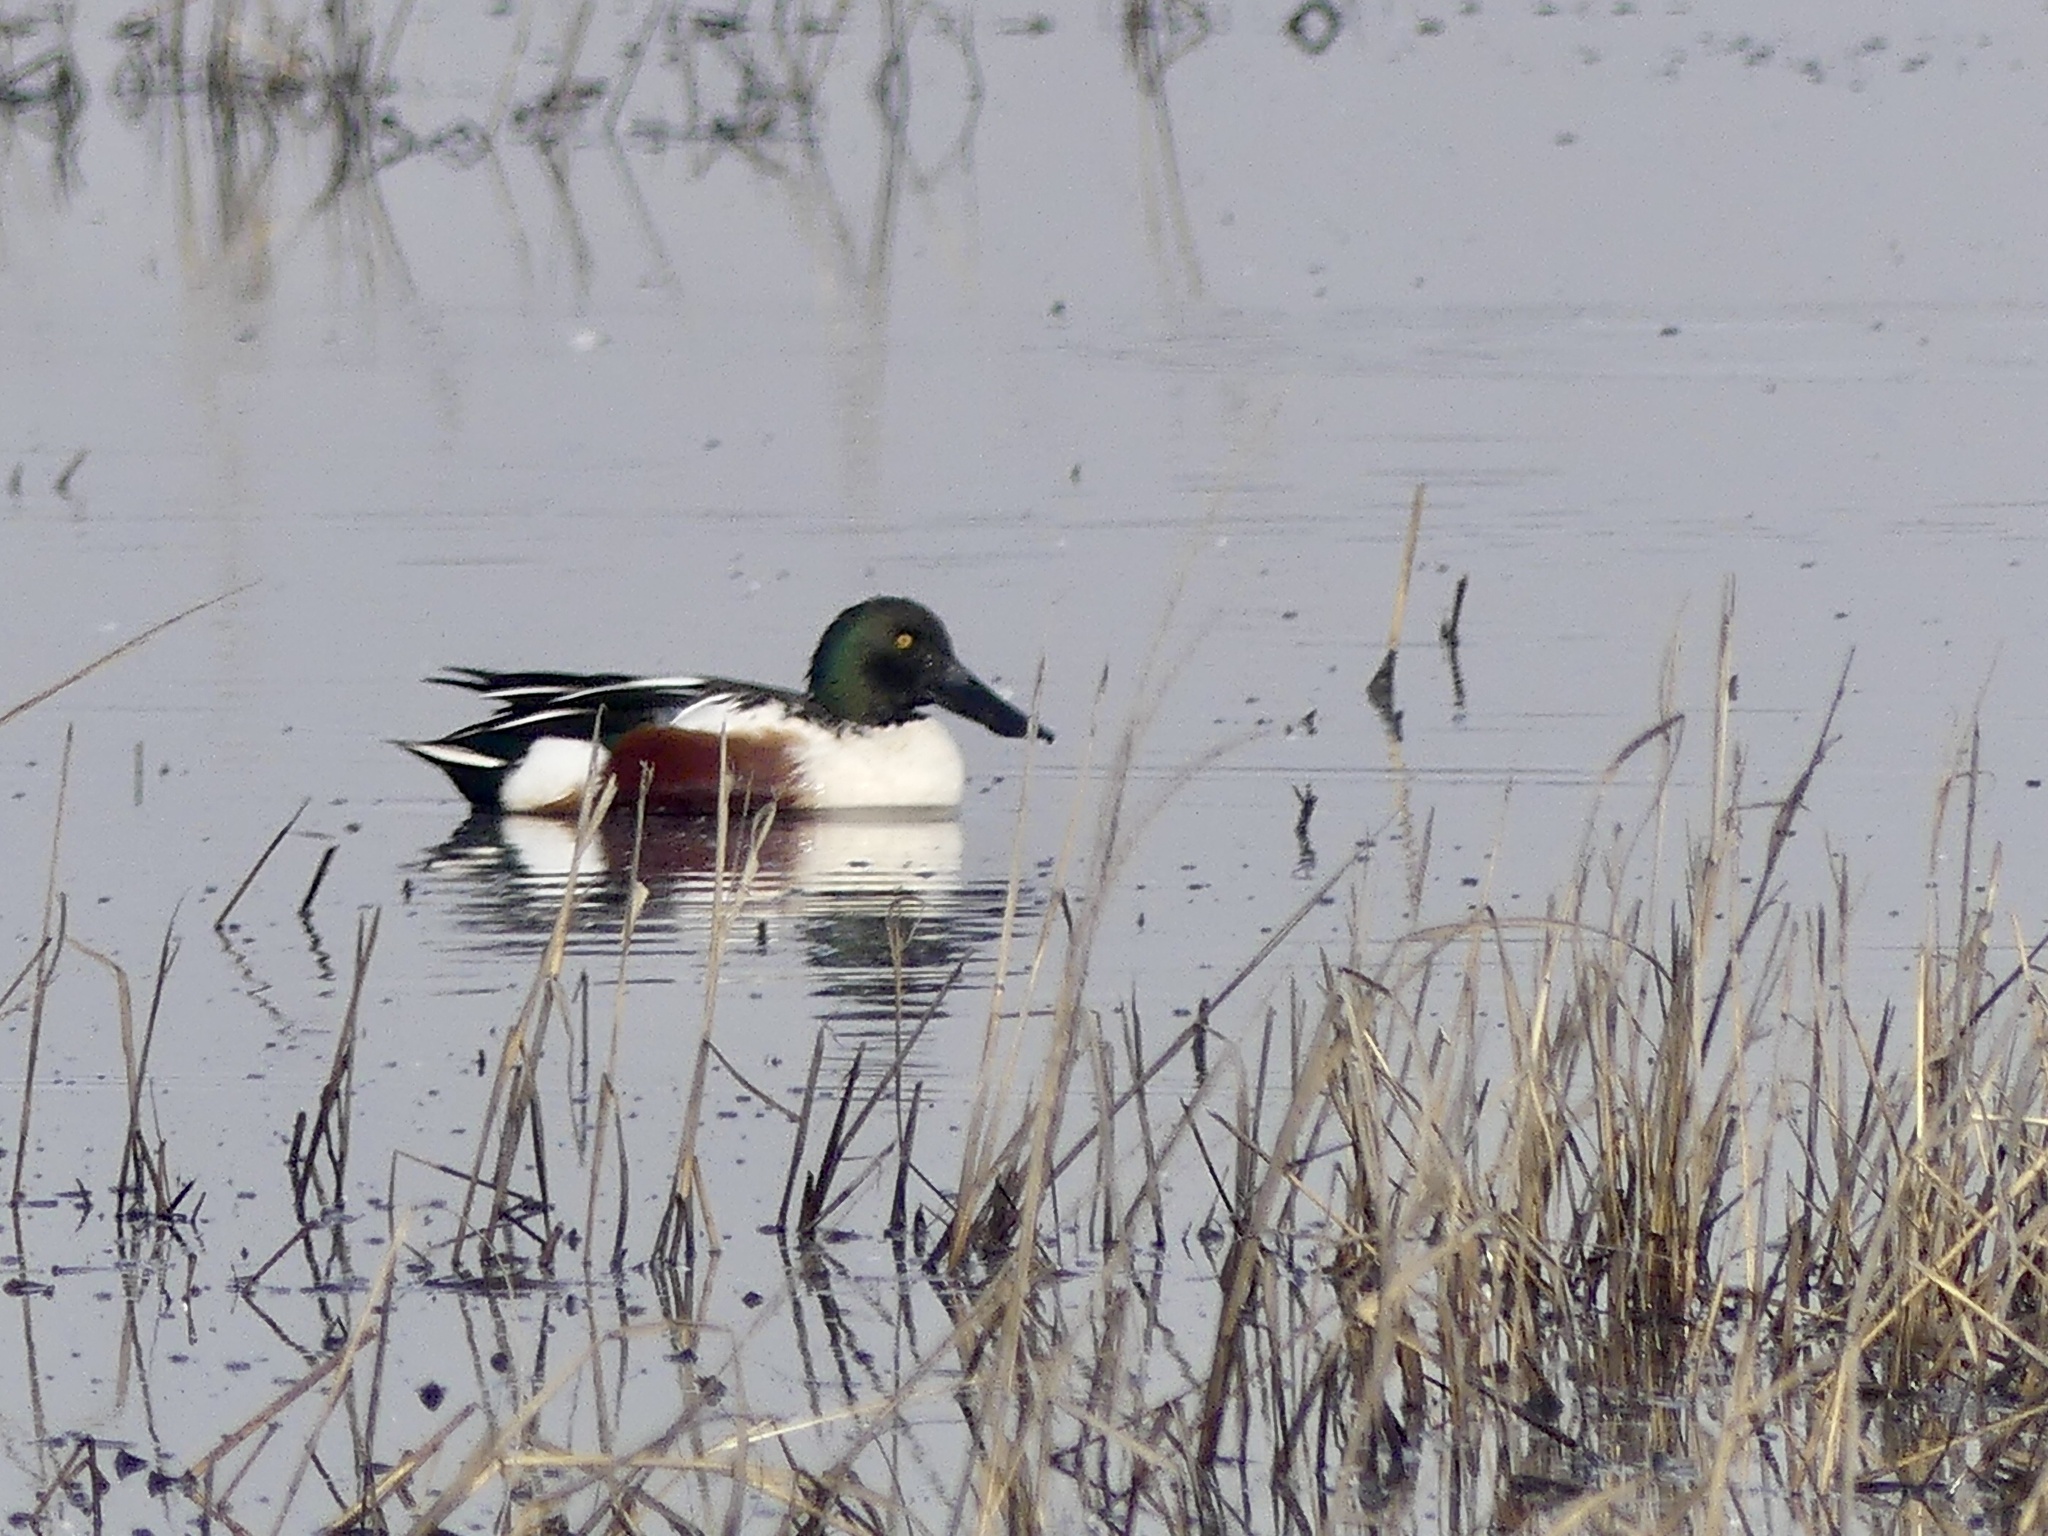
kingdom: Animalia
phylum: Chordata
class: Aves
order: Anseriformes
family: Anatidae
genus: Spatula
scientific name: Spatula clypeata
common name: Northern shoveler
